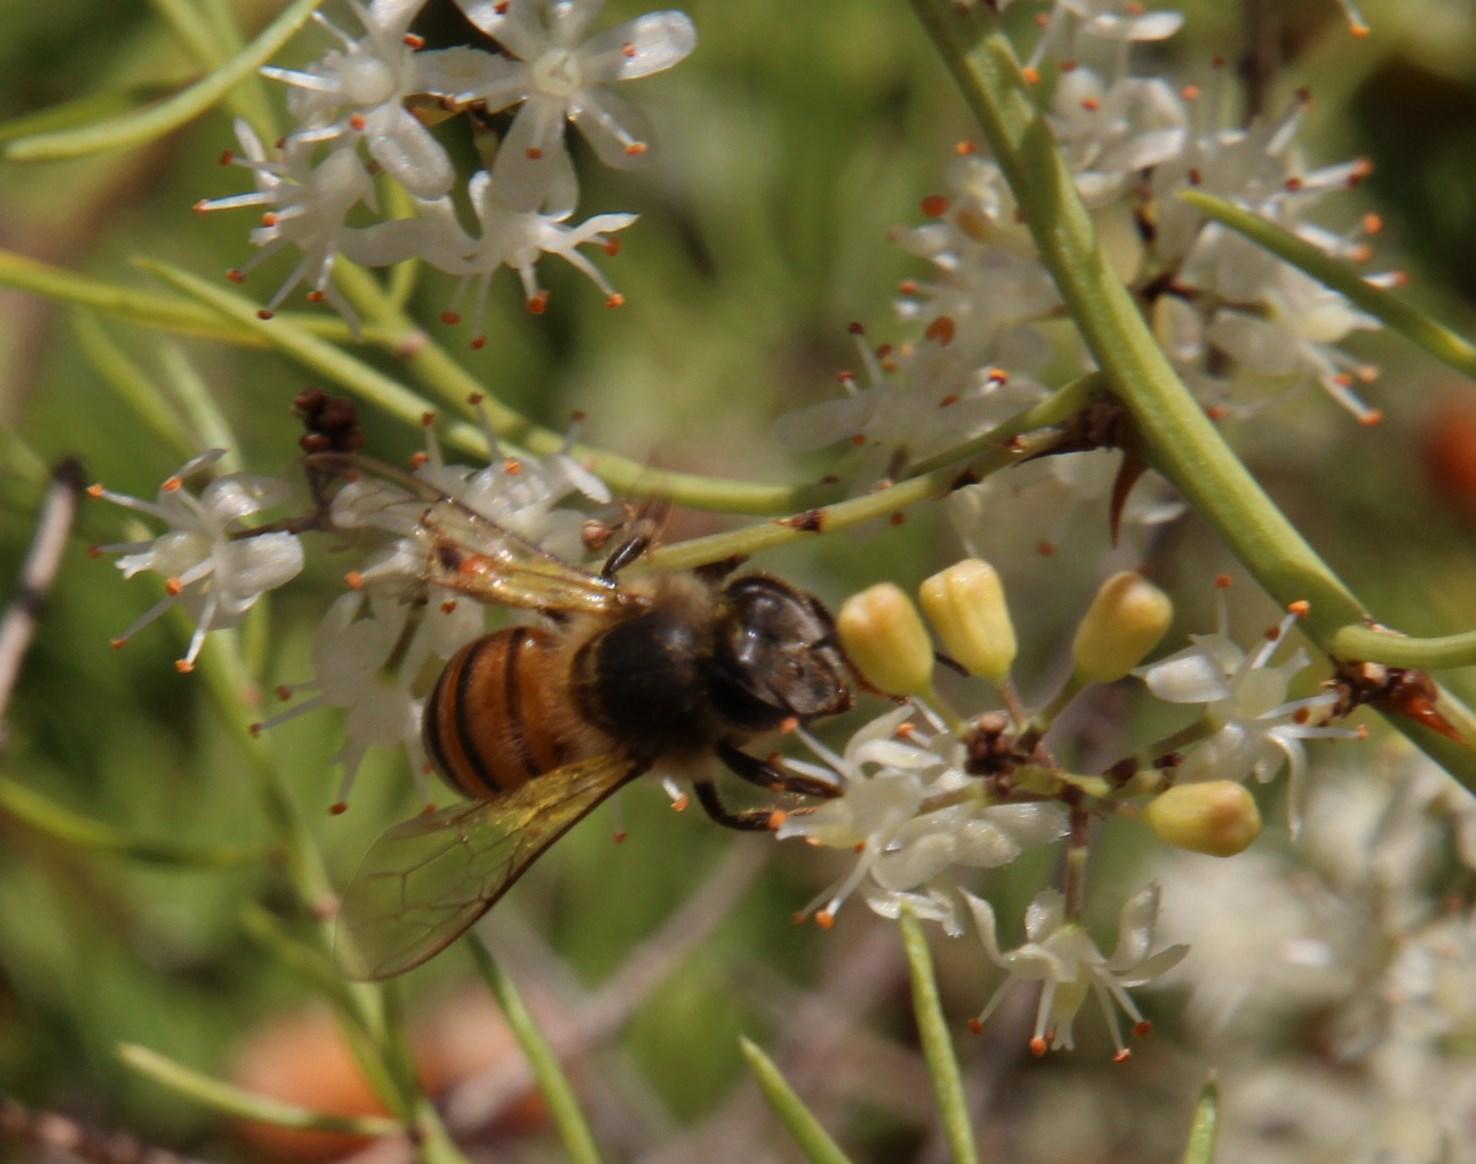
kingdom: Animalia
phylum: Arthropoda
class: Insecta
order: Hymenoptera
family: Apidae
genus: Apis
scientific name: Apis mellifera
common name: Honey bee
